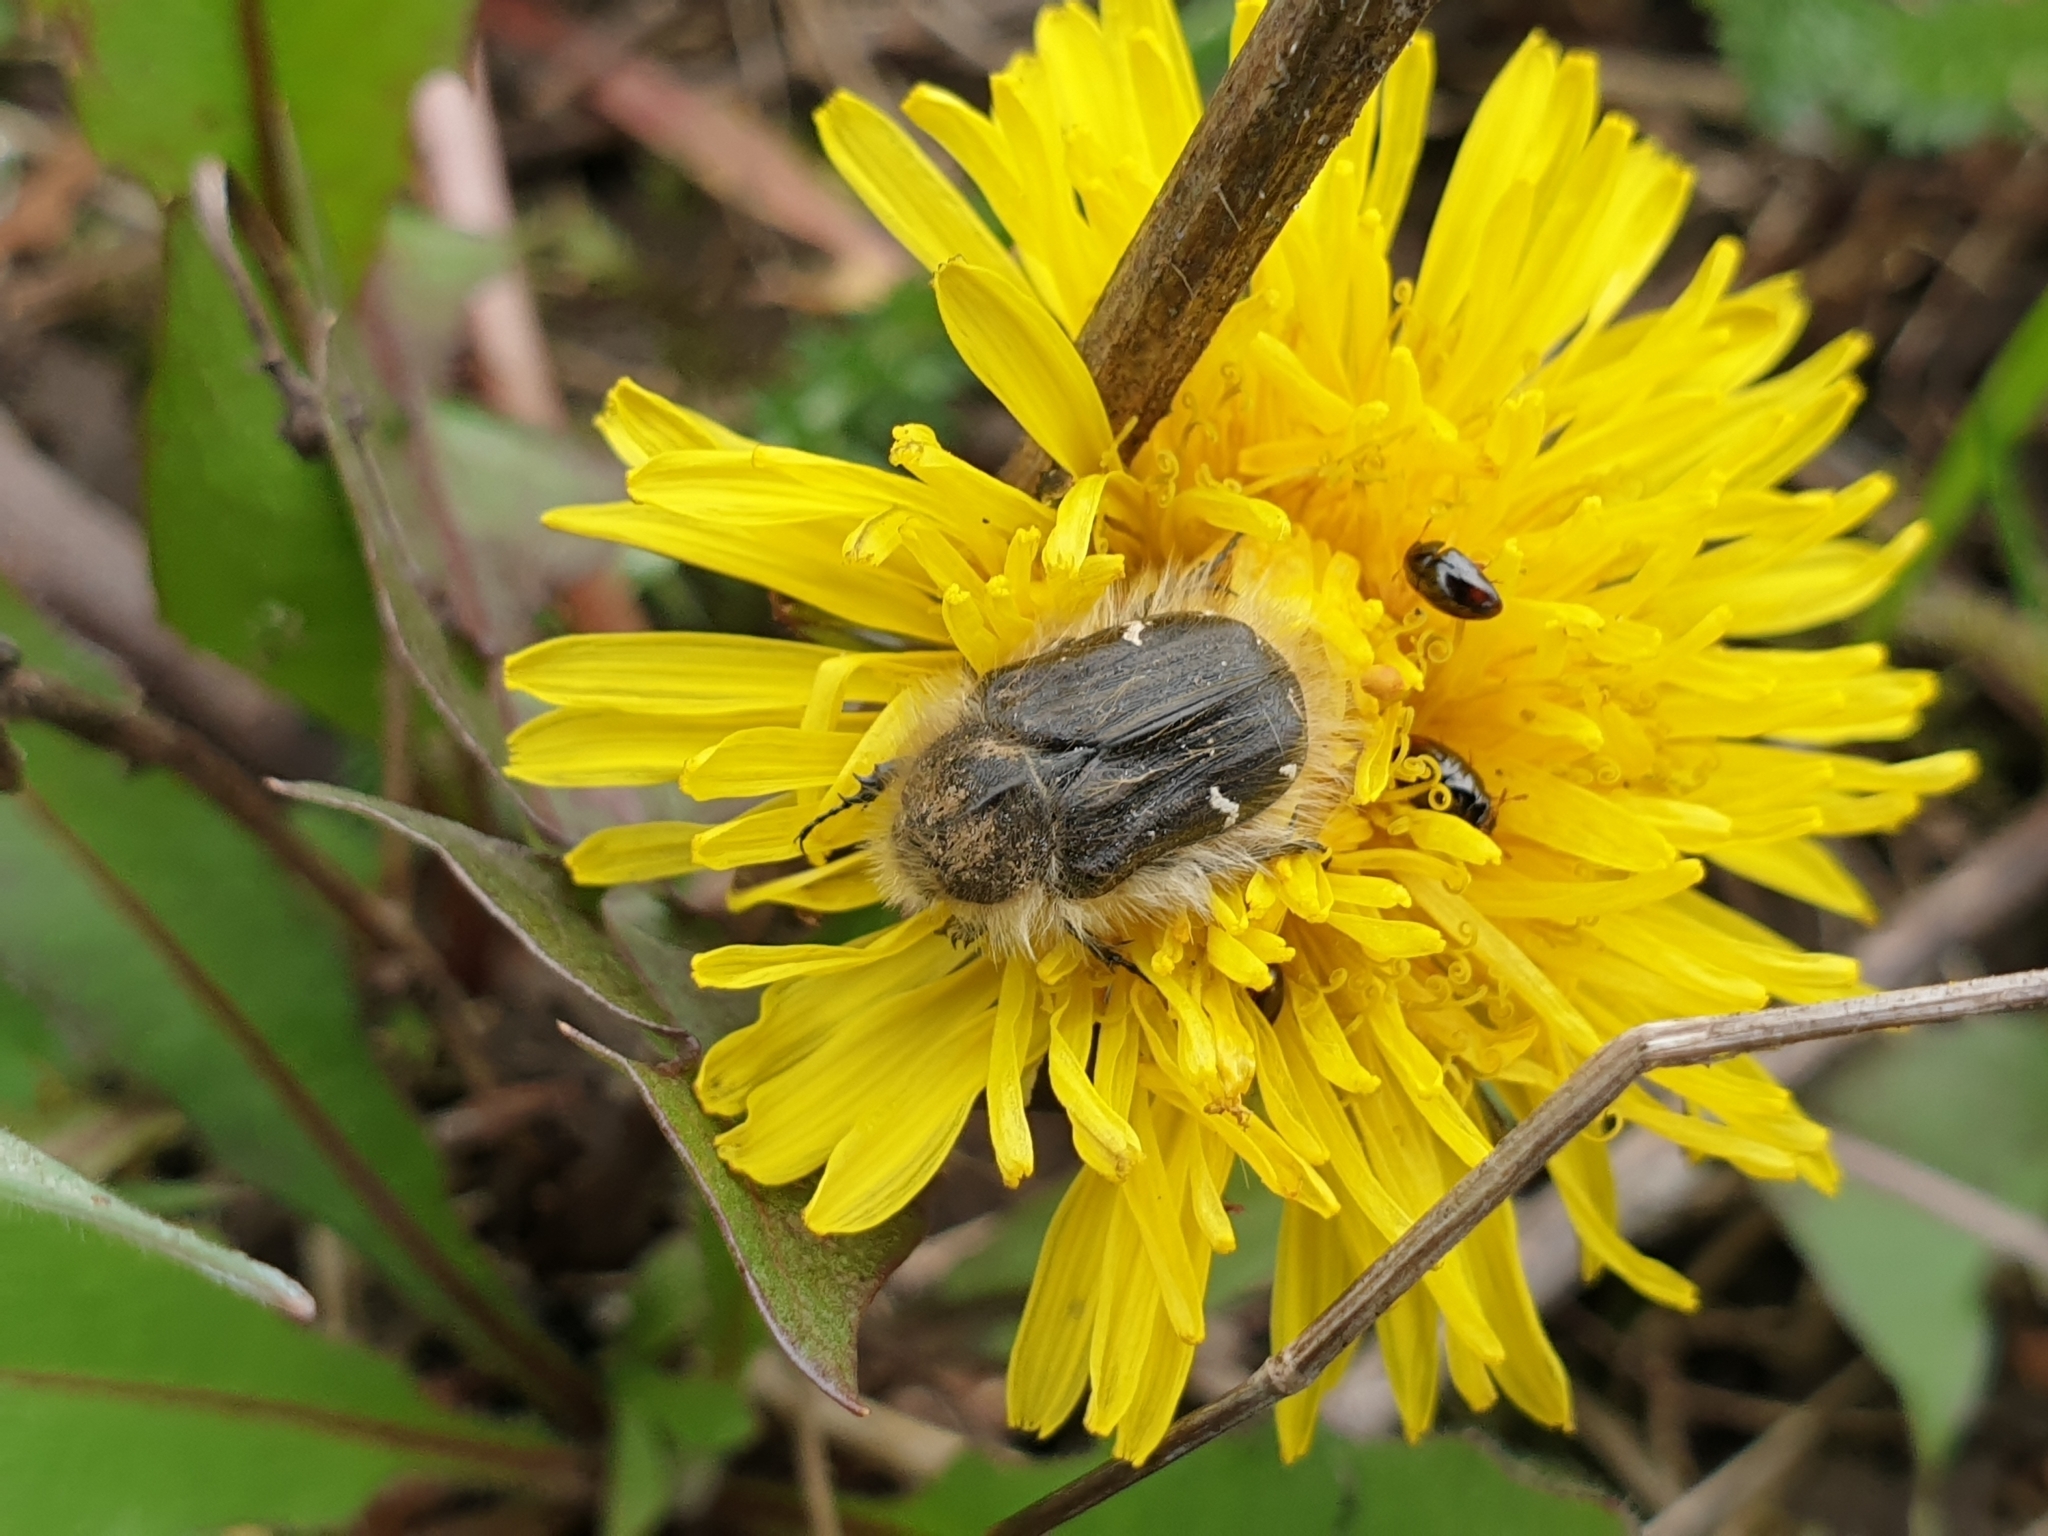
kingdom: Animalia
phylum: Arthropoda
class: Insecta
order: Coleoptera
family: Scarabaeidae
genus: Tropinota
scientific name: Tropinota hirta
